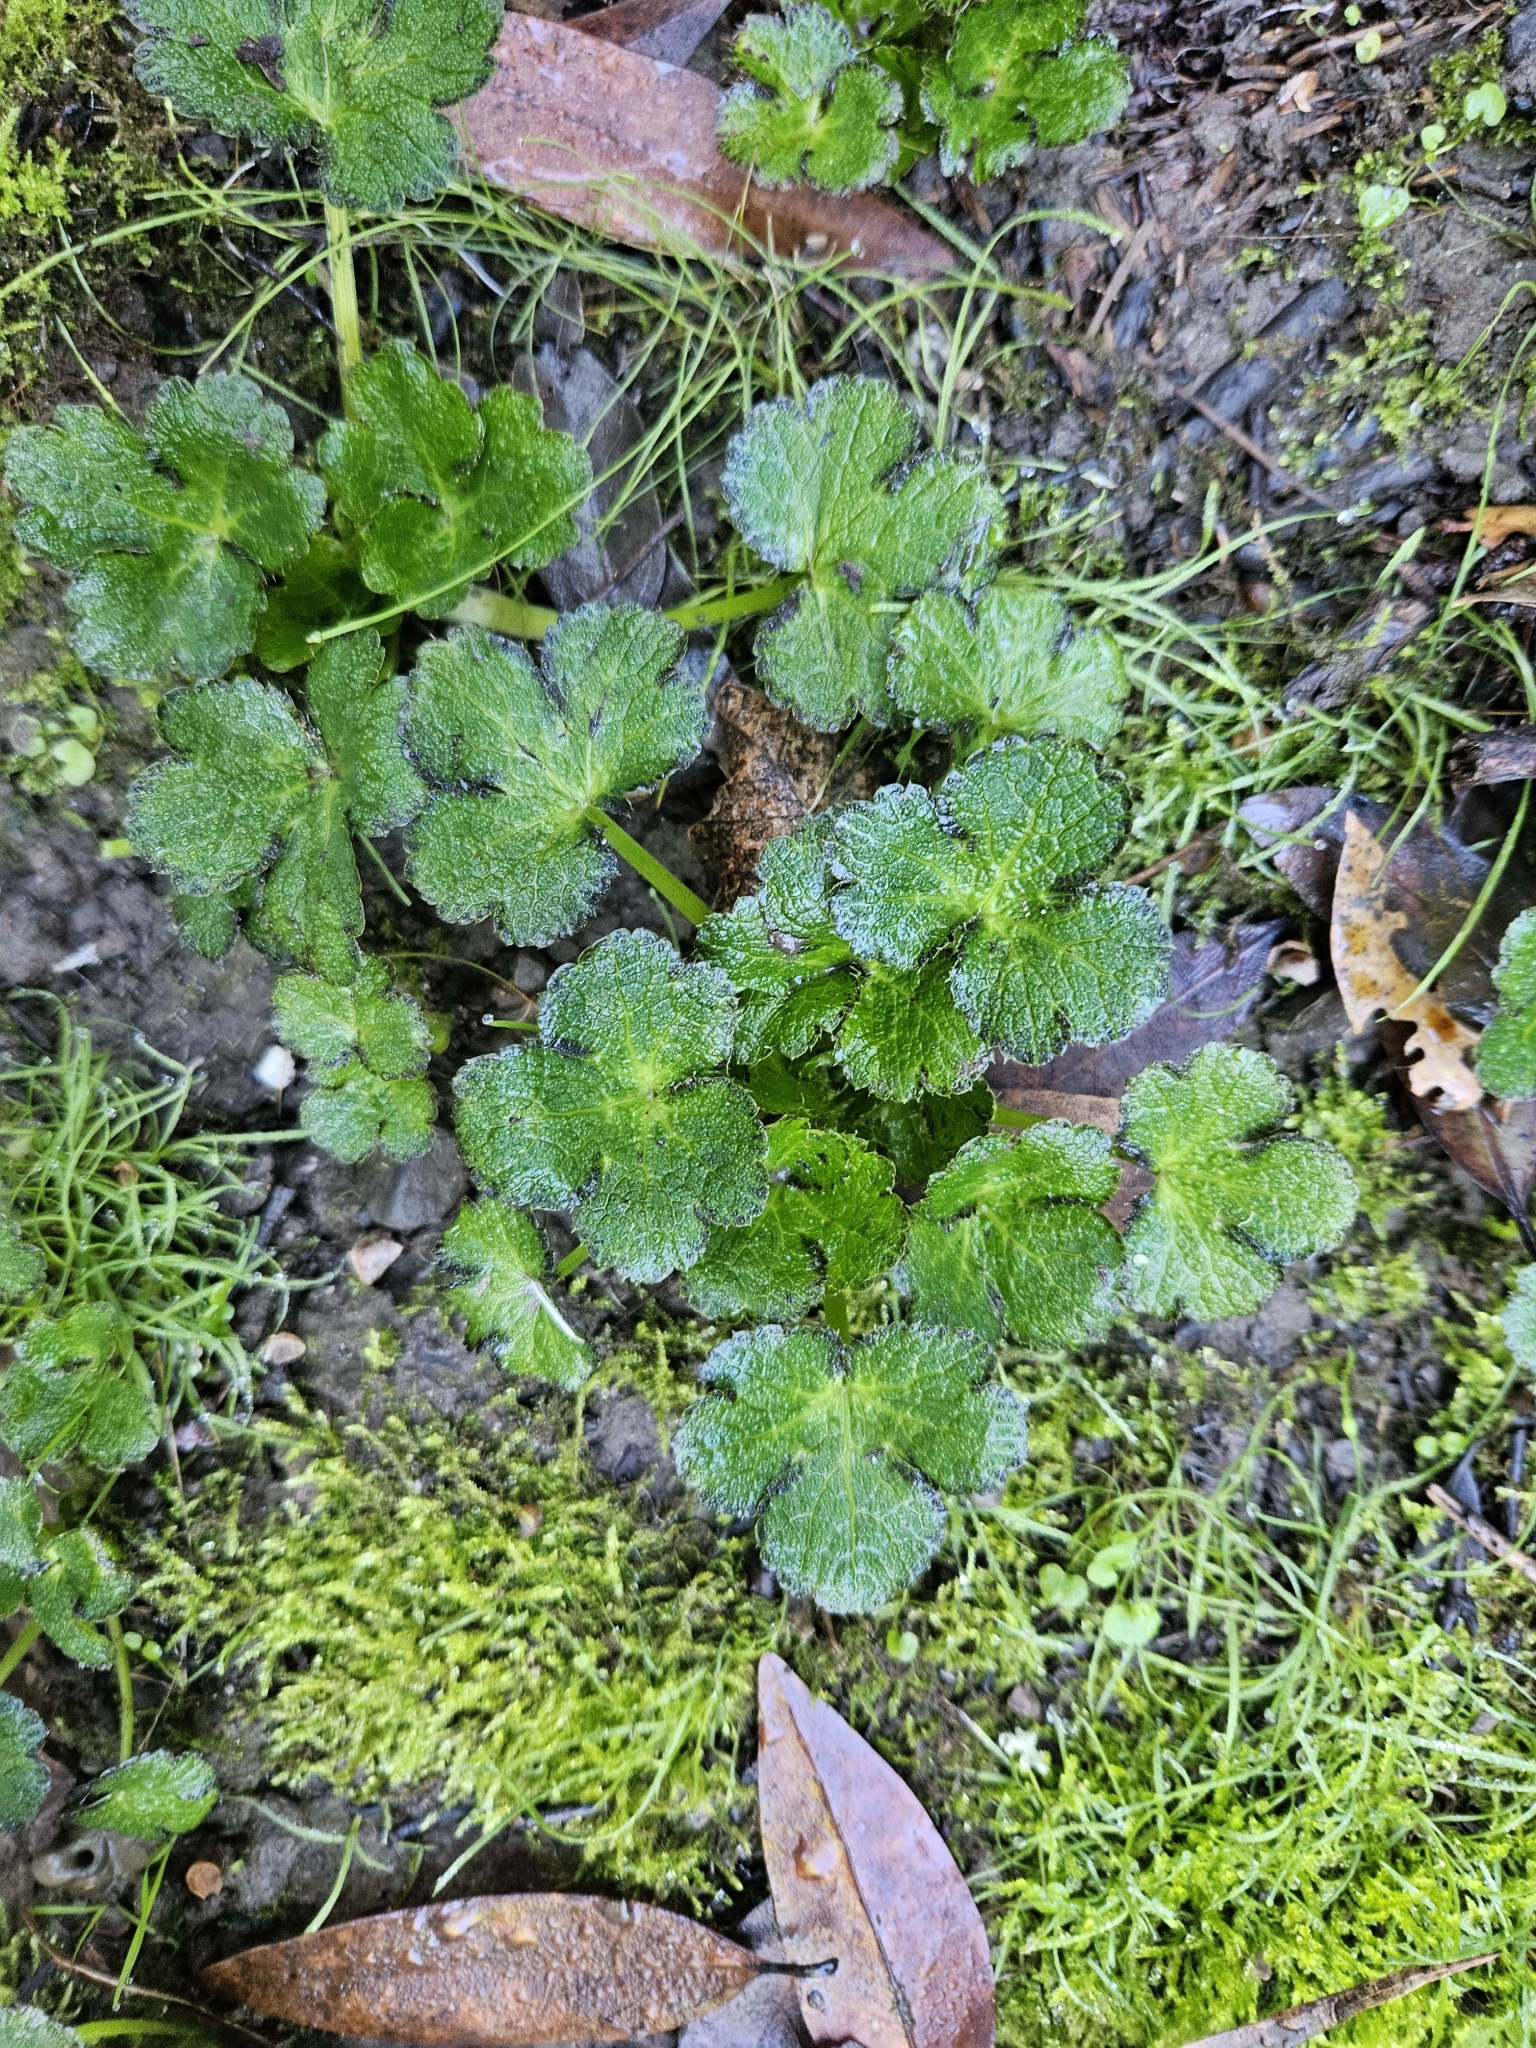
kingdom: Plantae
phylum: Tracheophyta
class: Magnoliopsida
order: Apiales
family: Apiaceae
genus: Sanicula
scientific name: Sanicula crassicaulis
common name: Western snakeroot
